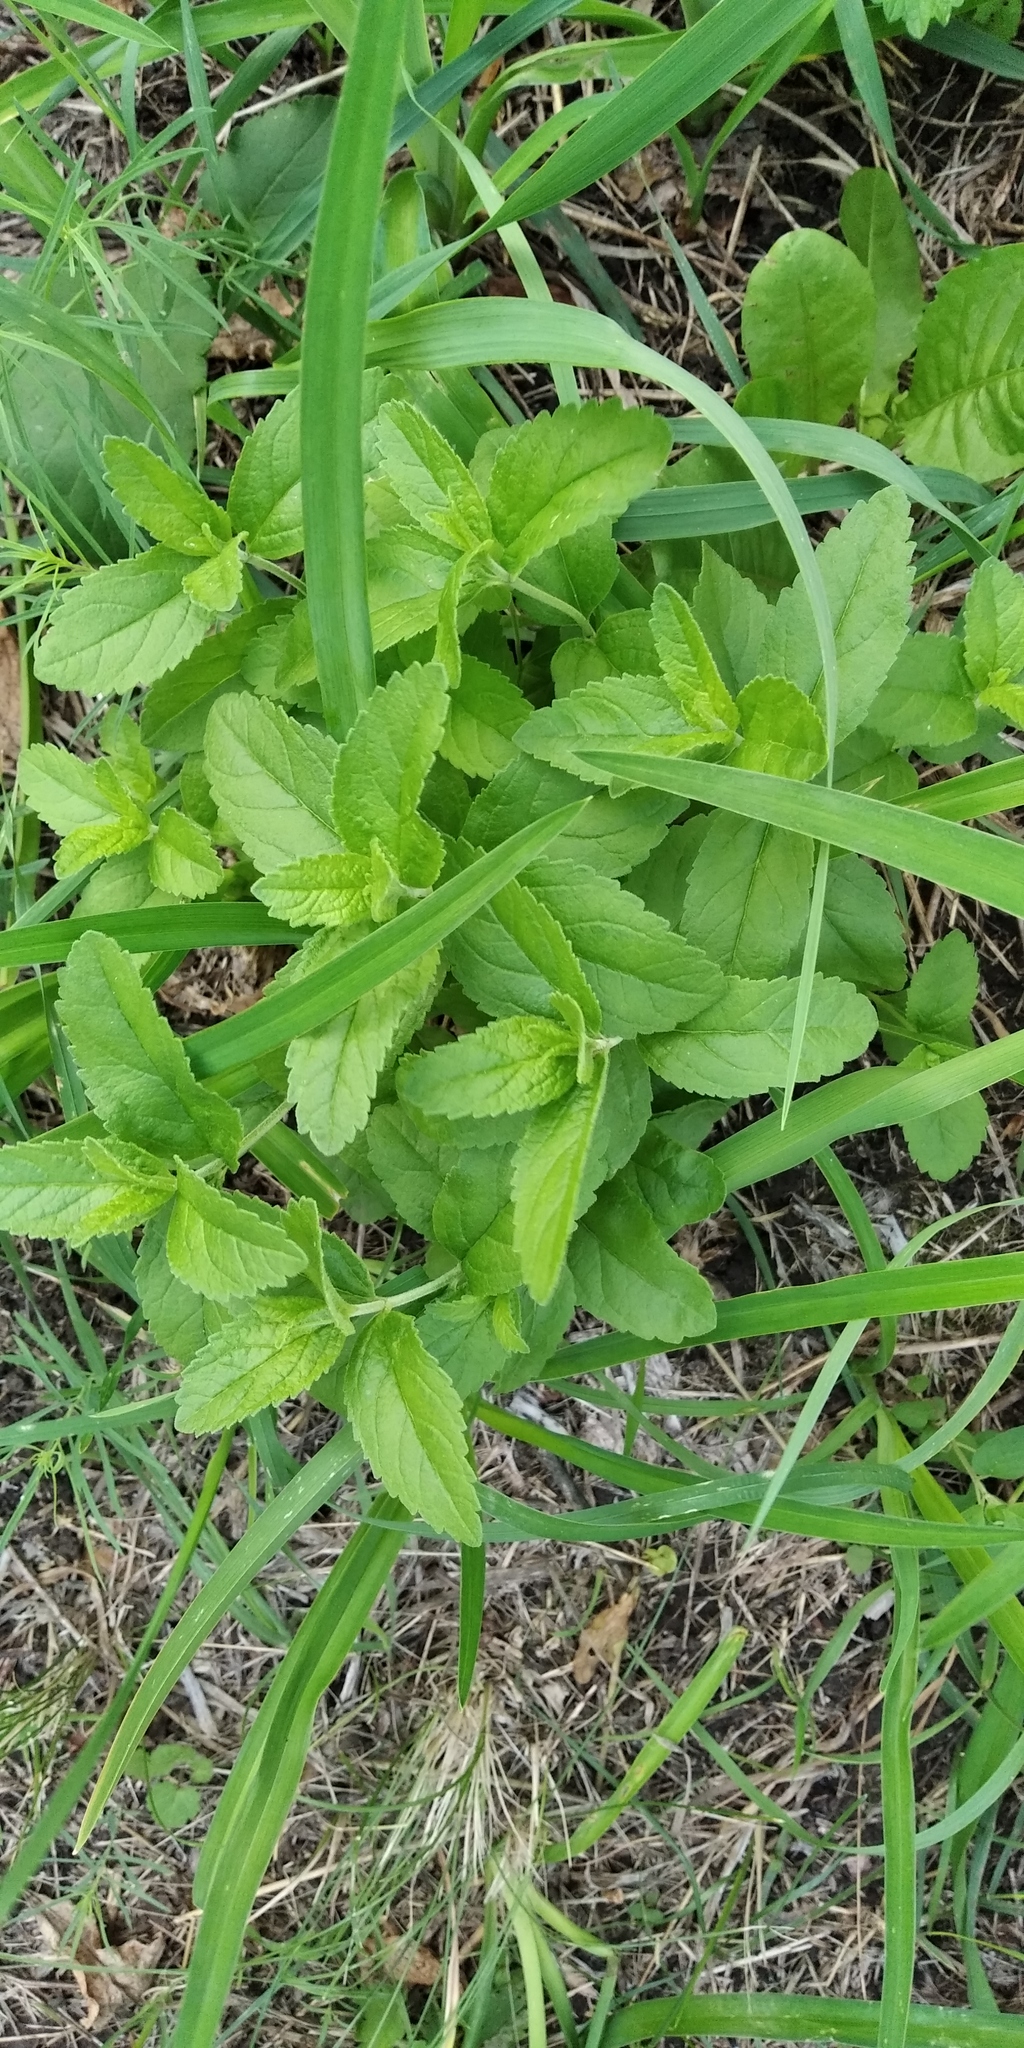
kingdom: Plantae
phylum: Tracheophyta
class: Magnoliopsida
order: Lamiales
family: Plantaginaceae
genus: Veronica
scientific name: Veronica prostrata
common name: Prostrate speedwell
